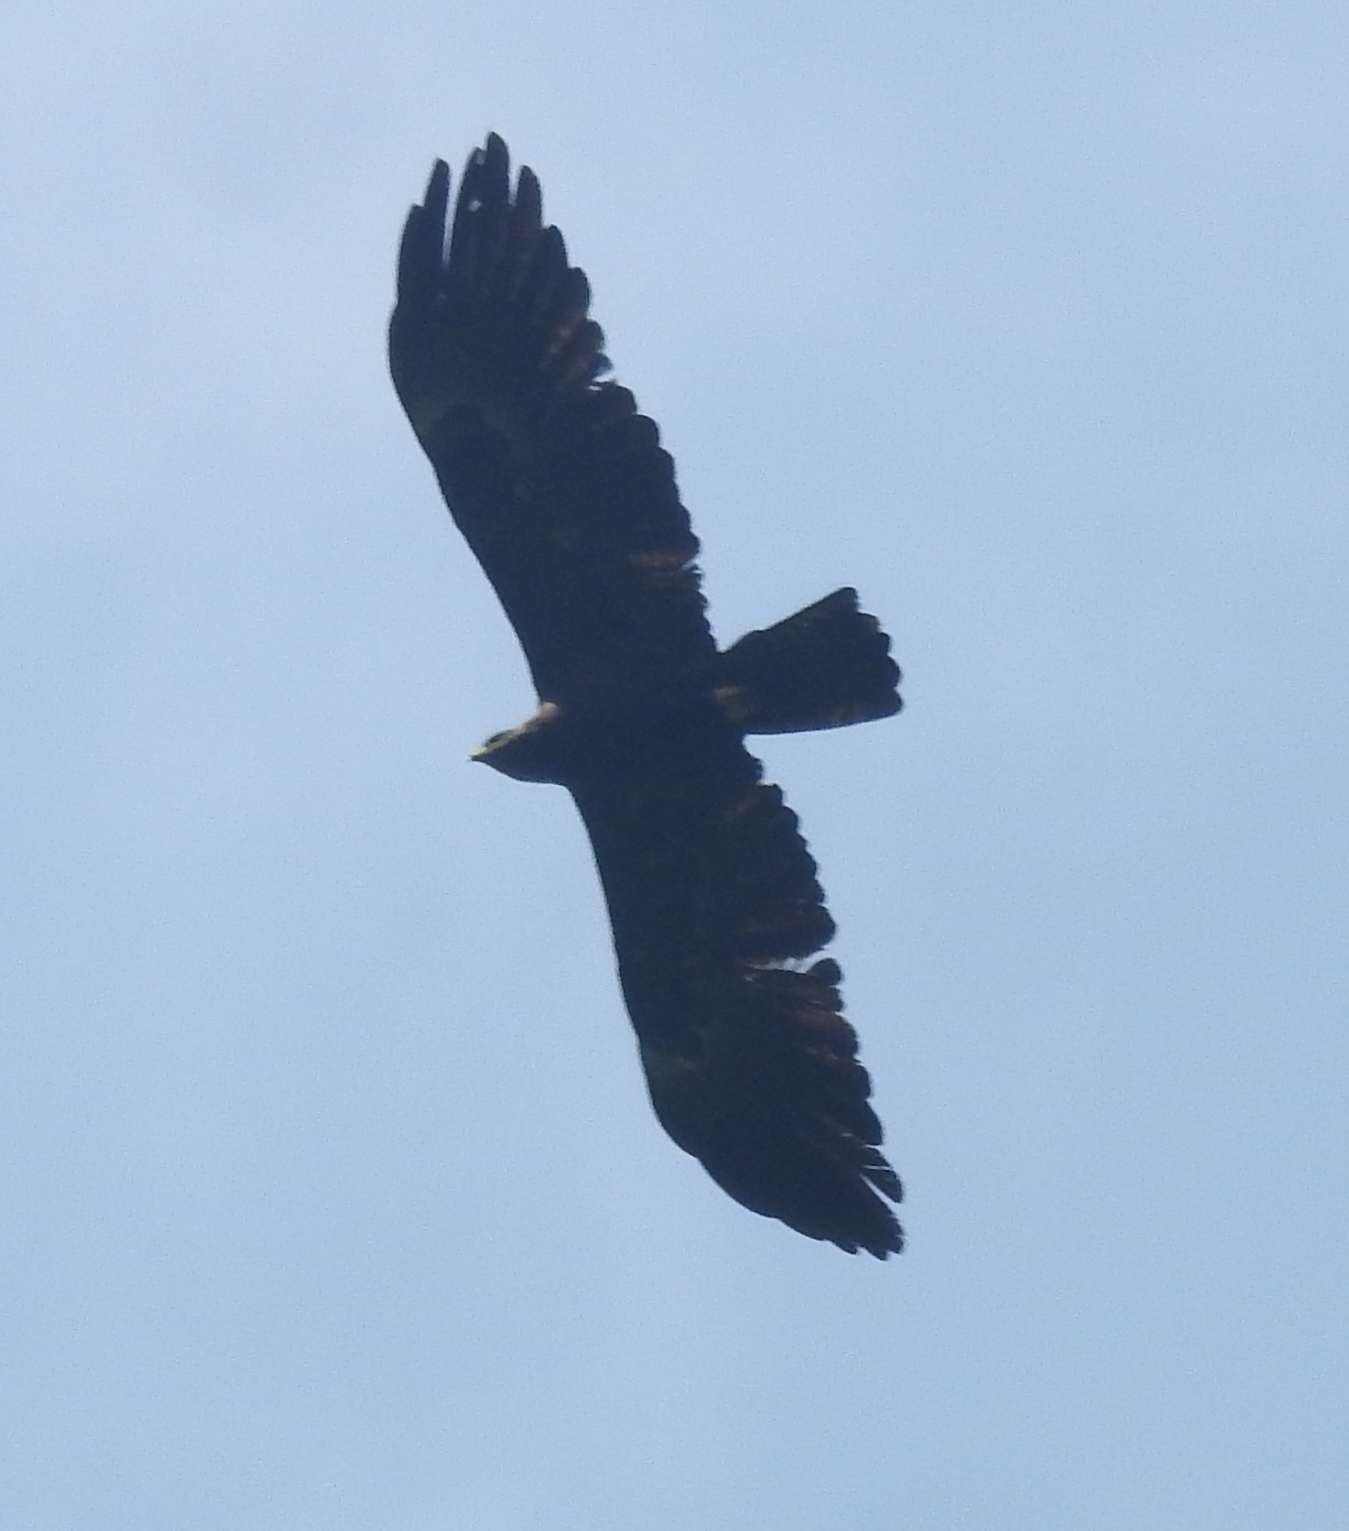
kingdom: Animalia
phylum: Chordata
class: Aves
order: Accipitriformes
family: Accipitridae
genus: Ictinaetus
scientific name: Ictinaetus malayensis
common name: Black eagle
